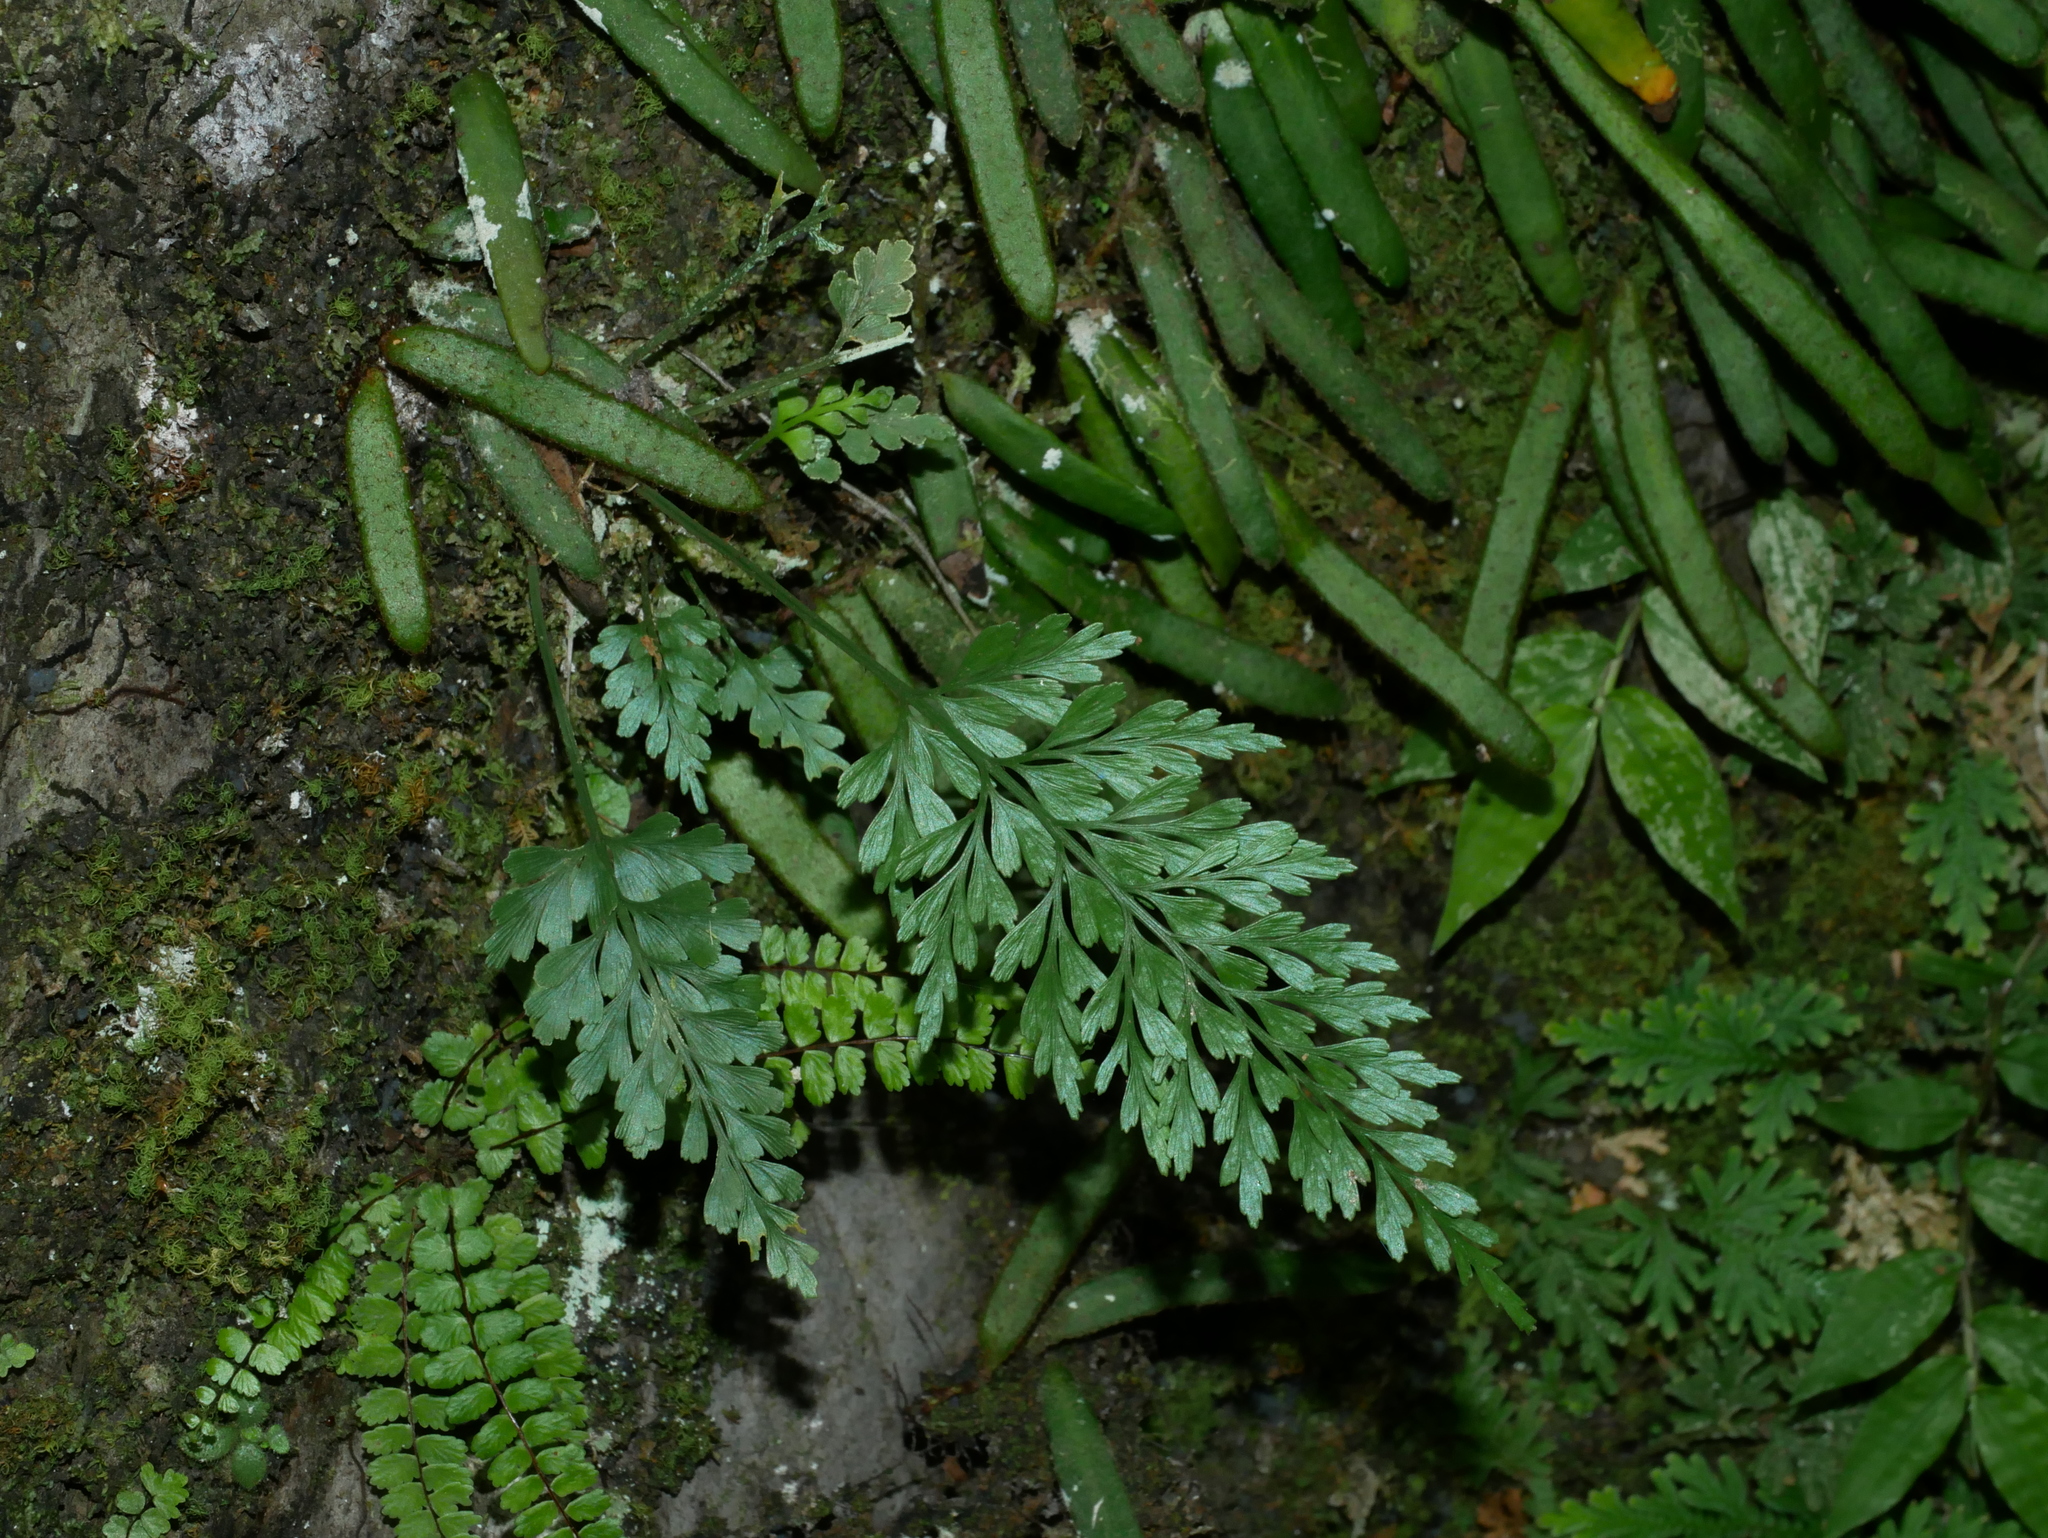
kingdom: Plantae
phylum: Tracheophyta
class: Polypodiopsida
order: Polypodiales
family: Aspleniaceae
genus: Asplenium
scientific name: Asplenium wilfordii
